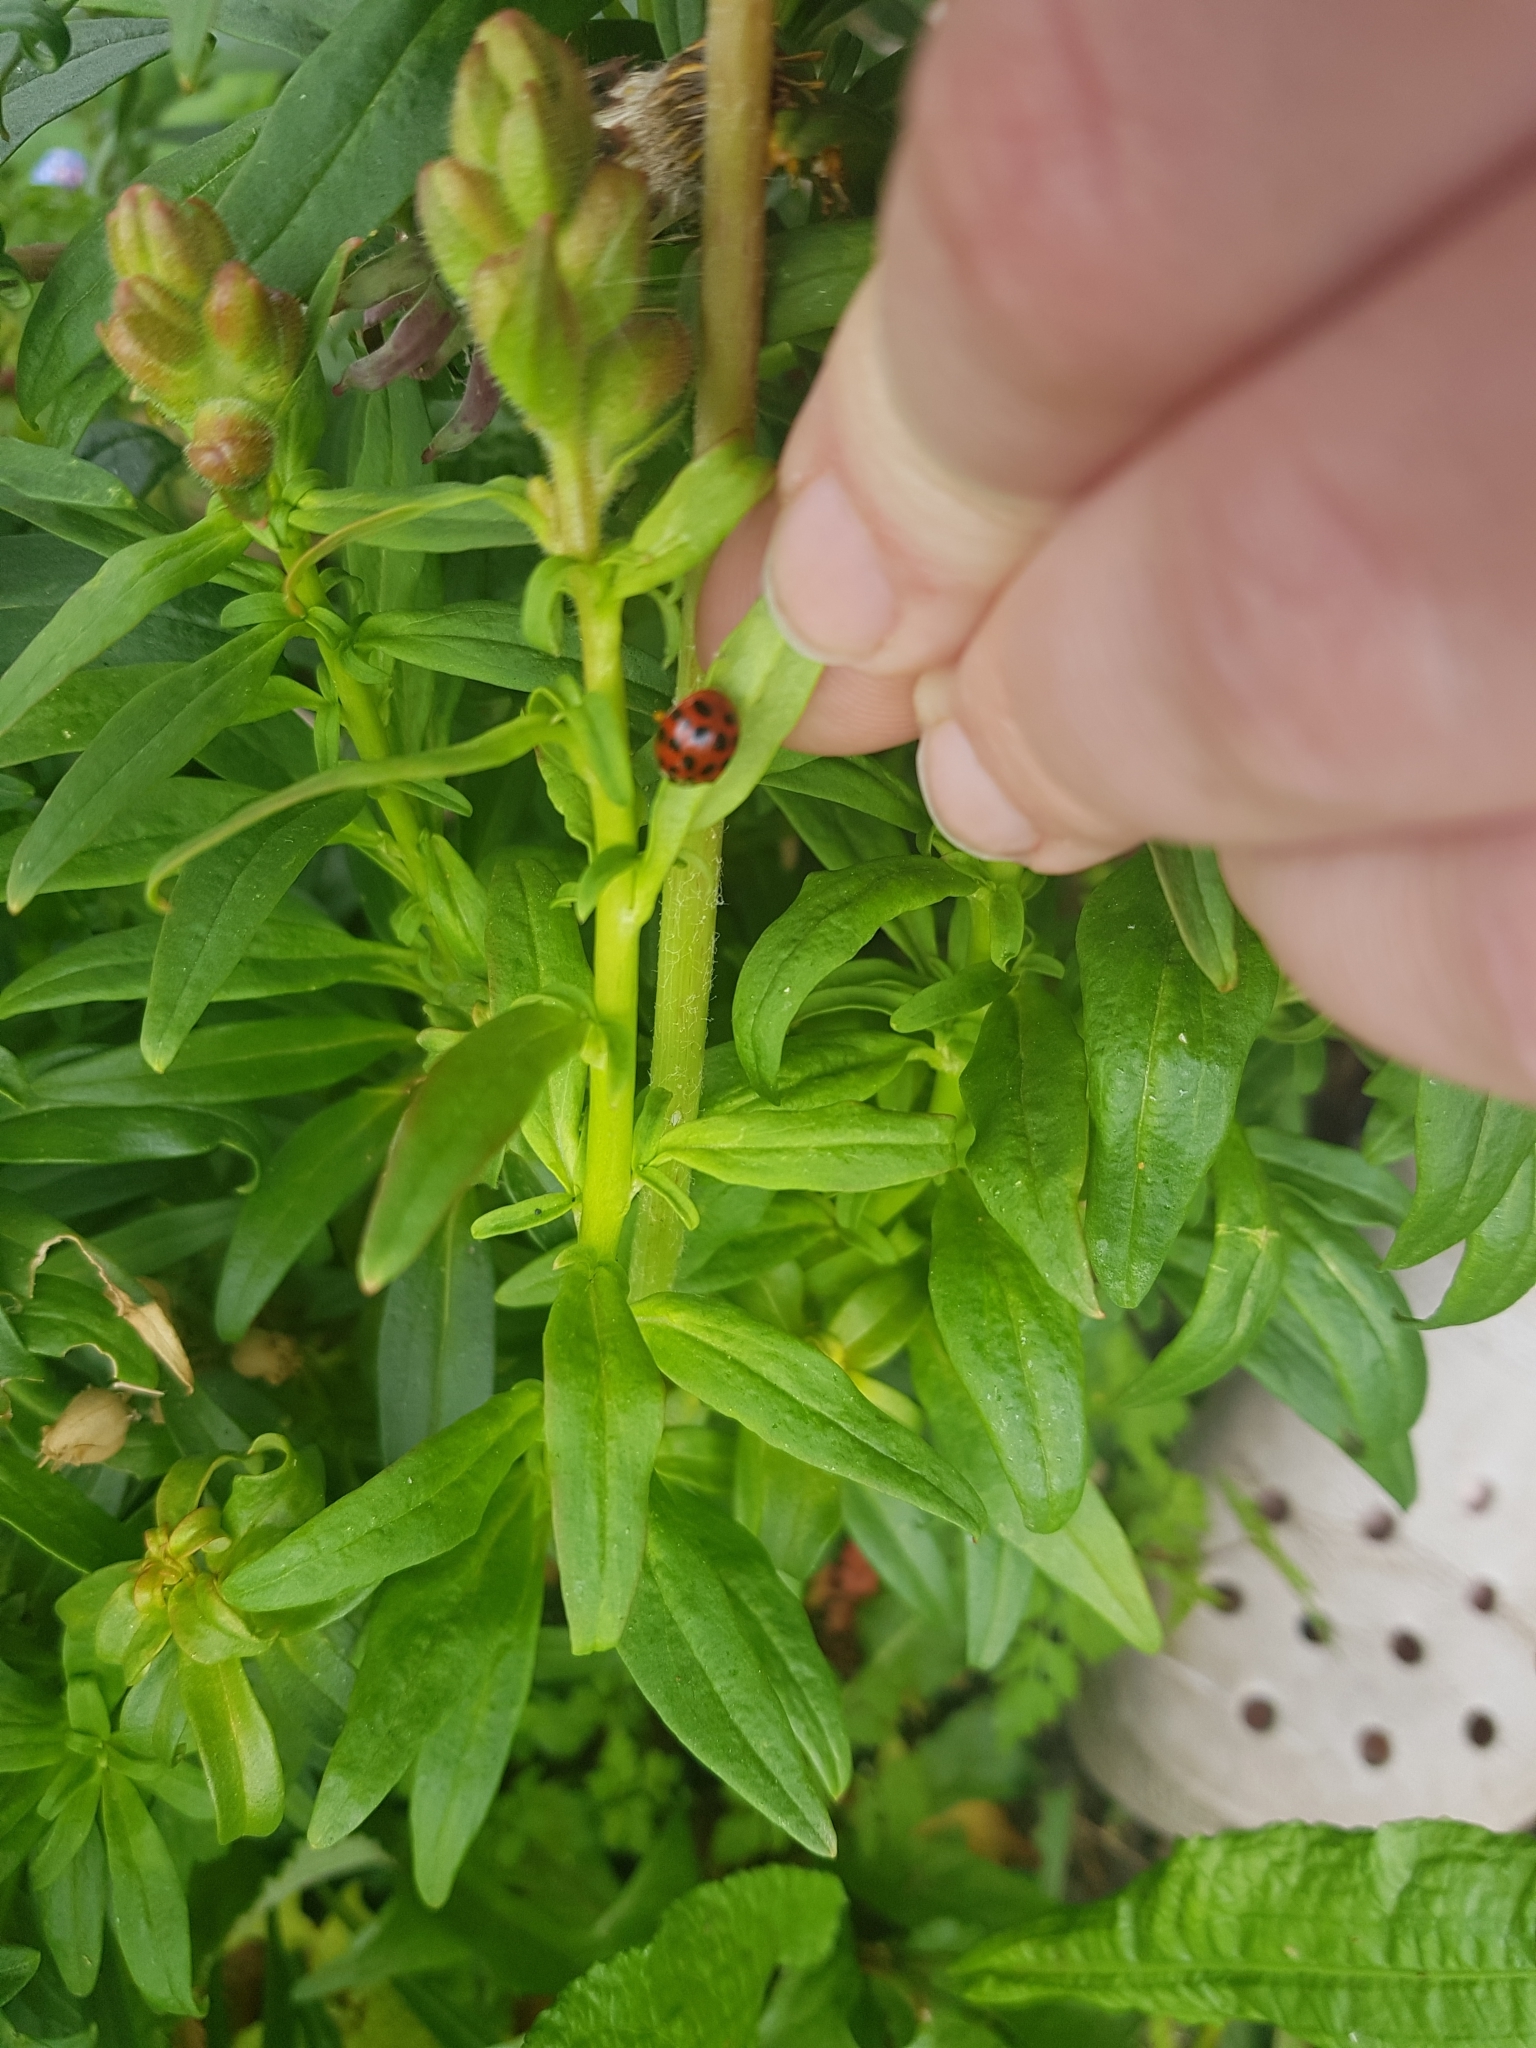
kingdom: Animalia
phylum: Arthropoda
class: Insecta
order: Coleoptera
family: Coccinellidae
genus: Harmonia
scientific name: Harmonia axyridis
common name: Harlequin ladybird
